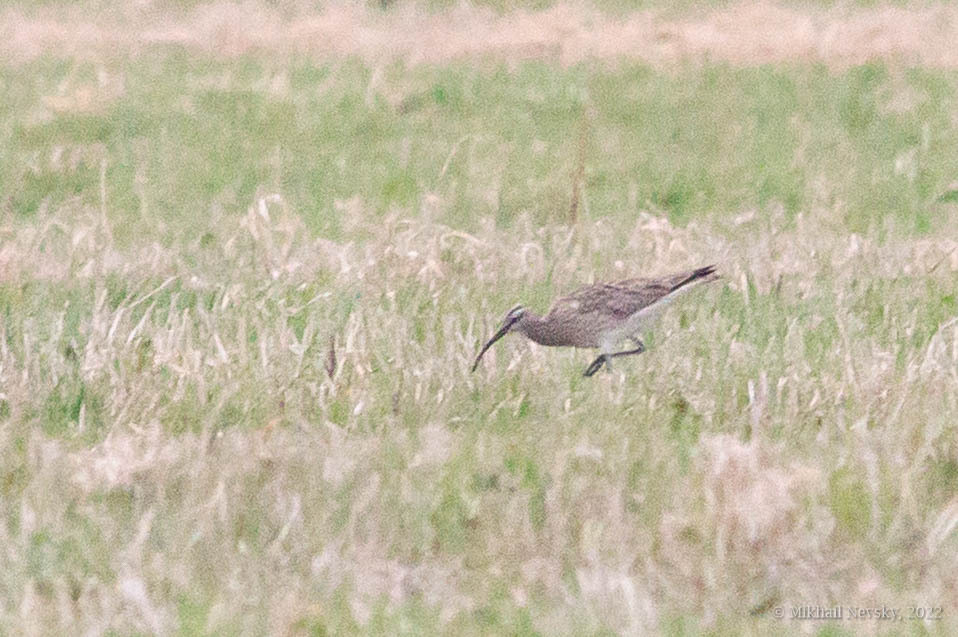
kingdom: Animalia
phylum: Chordata
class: Aves
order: Charadriiformes
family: Scolopacidae
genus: Numenius
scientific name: Numenius phaeopus
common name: Whimbrel
